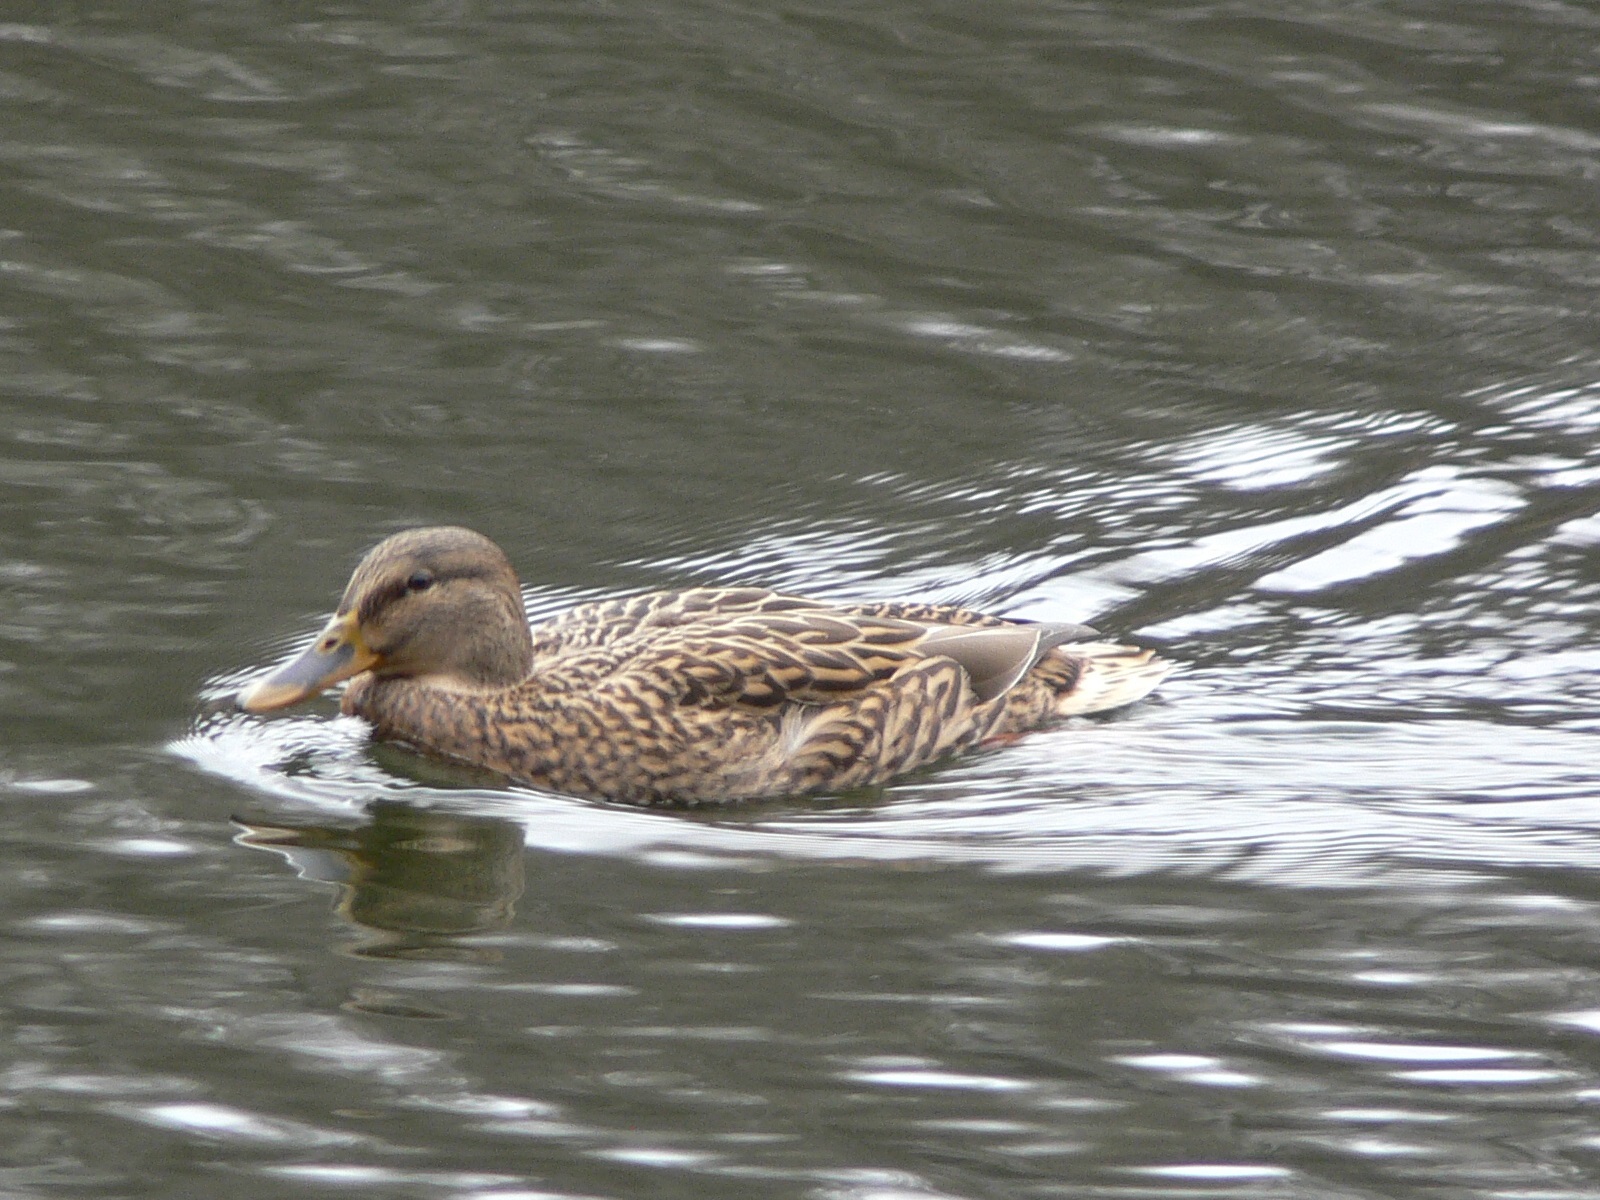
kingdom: Animalia
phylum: Chordata
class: Aves
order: Anseriformes
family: Anatidae
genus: Anas
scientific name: Anas platyrhynchos
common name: Mallard
